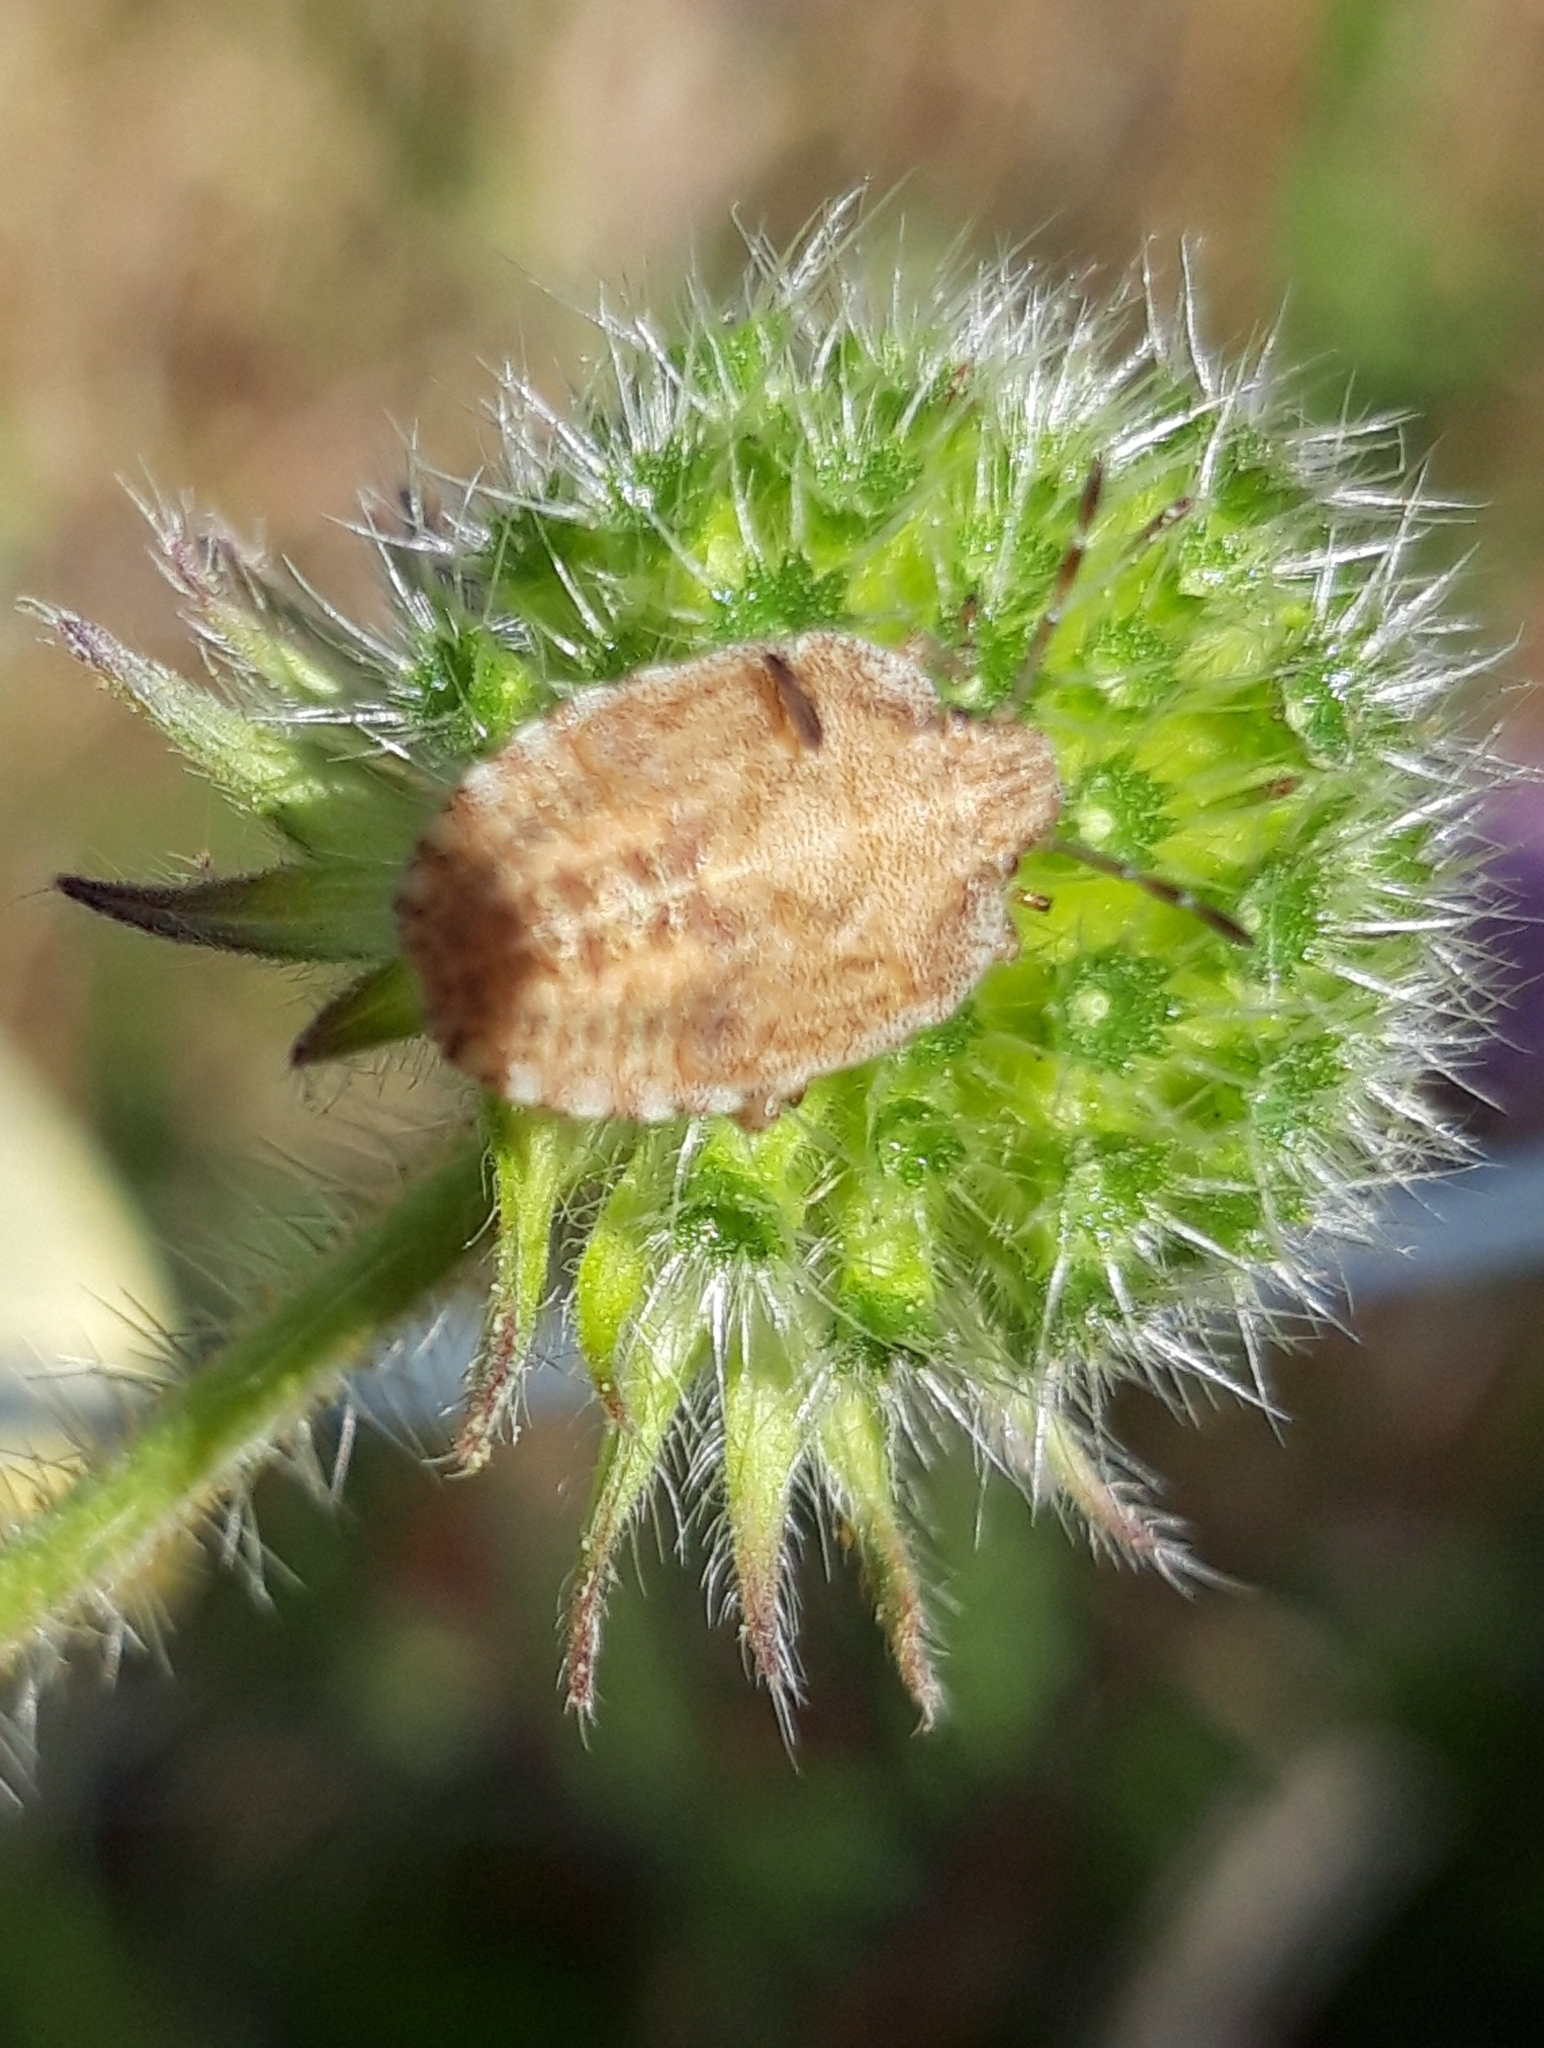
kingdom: Animalia
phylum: Arthropoda
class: Insecta
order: Hemiptera
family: Pentatomidae
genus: Dolycoris
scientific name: Dolycoris baccarum
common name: Sloe bug
